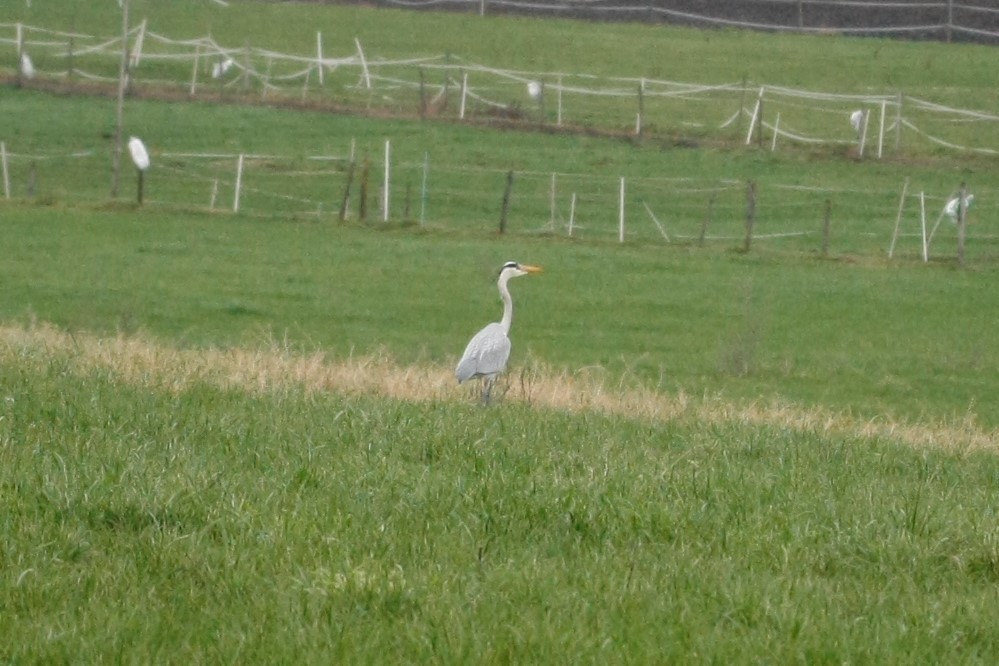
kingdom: Animalia
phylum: Chordata
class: Aves
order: Pelecaniformes
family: Ardeidae
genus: Ardea
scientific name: Ardea cinerea
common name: Grey heron
